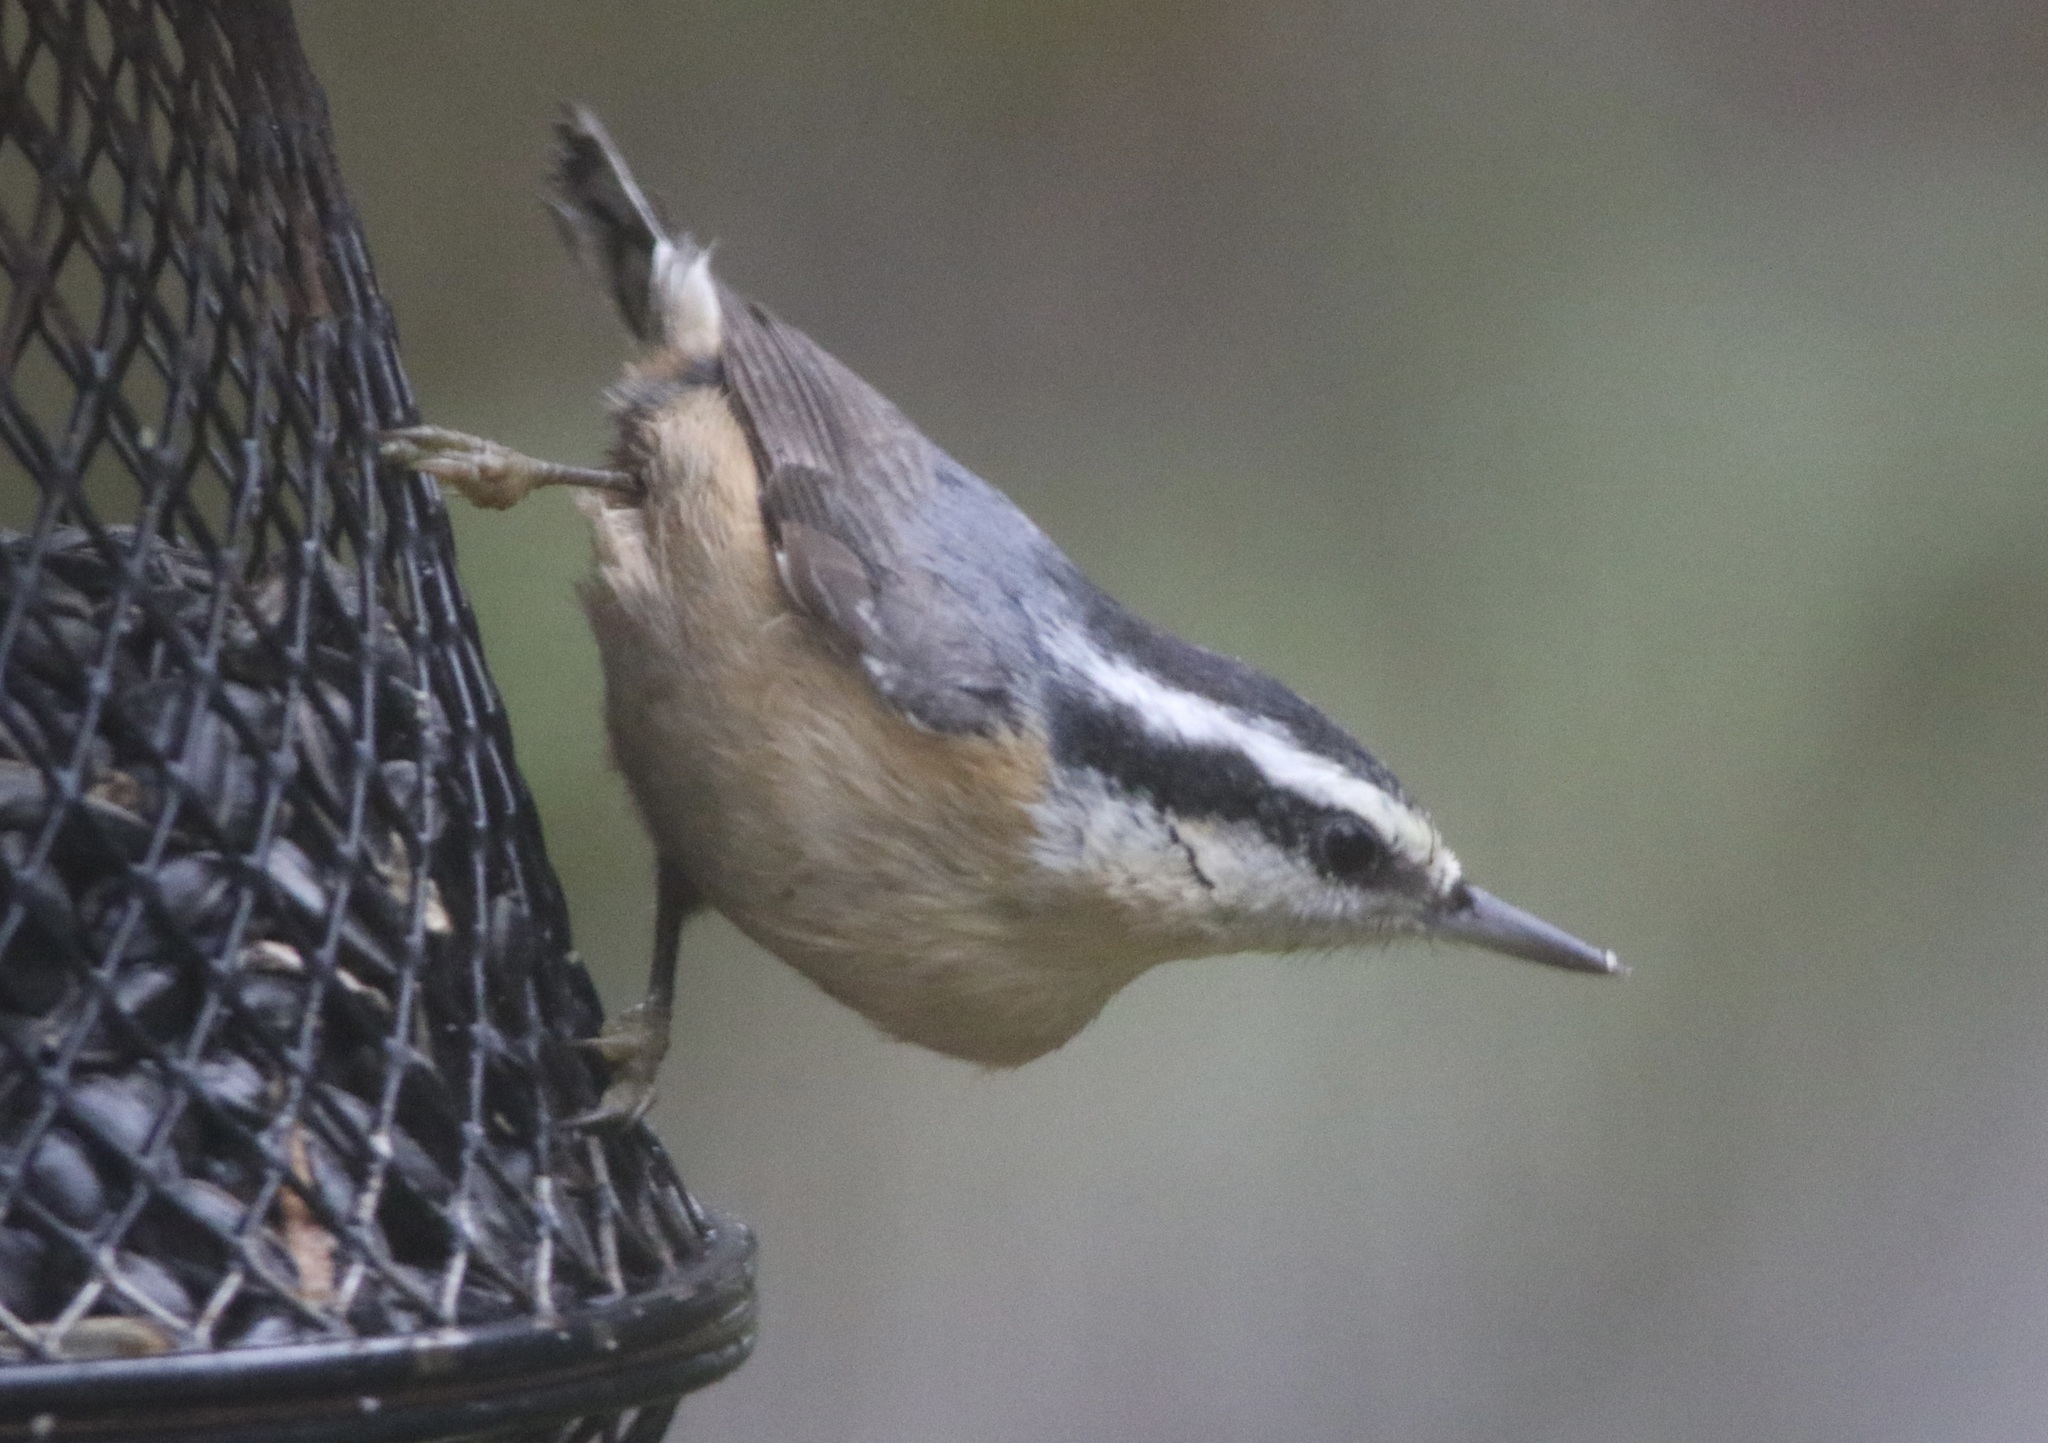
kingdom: Animalia
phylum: Chordata
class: Aves
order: Passeriformes
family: Sittidae
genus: Sitta
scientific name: Sitta canadensis
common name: Red-breasted nuthatch
